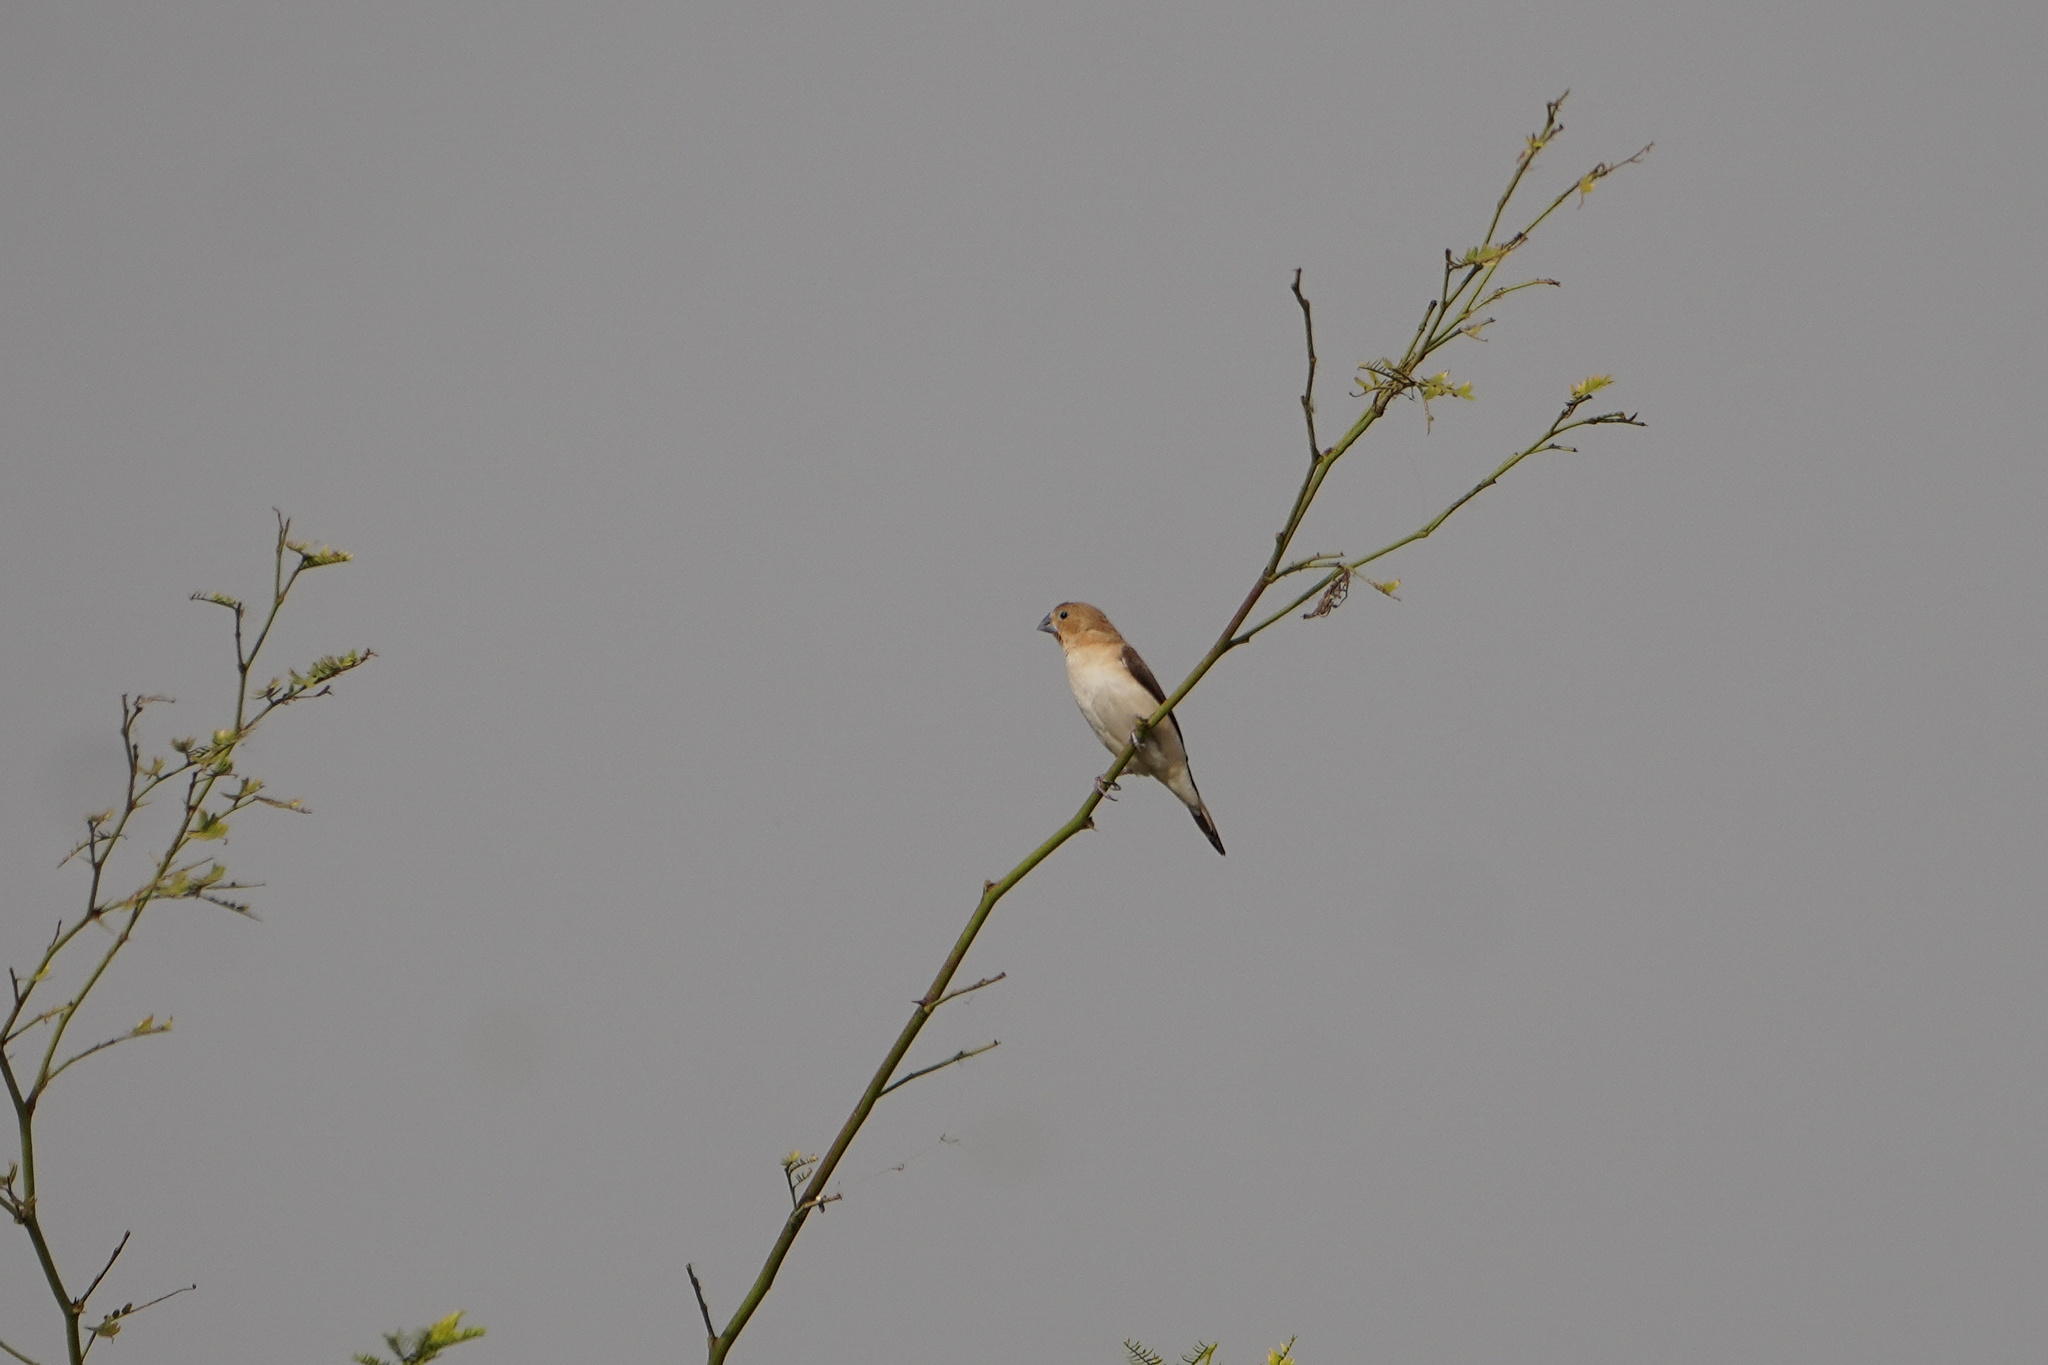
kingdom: Animalia
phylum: Chordata
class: Aves
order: Passeriformes
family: Estrildidae
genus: Euodice
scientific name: Euodice cantans
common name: African silverbill
